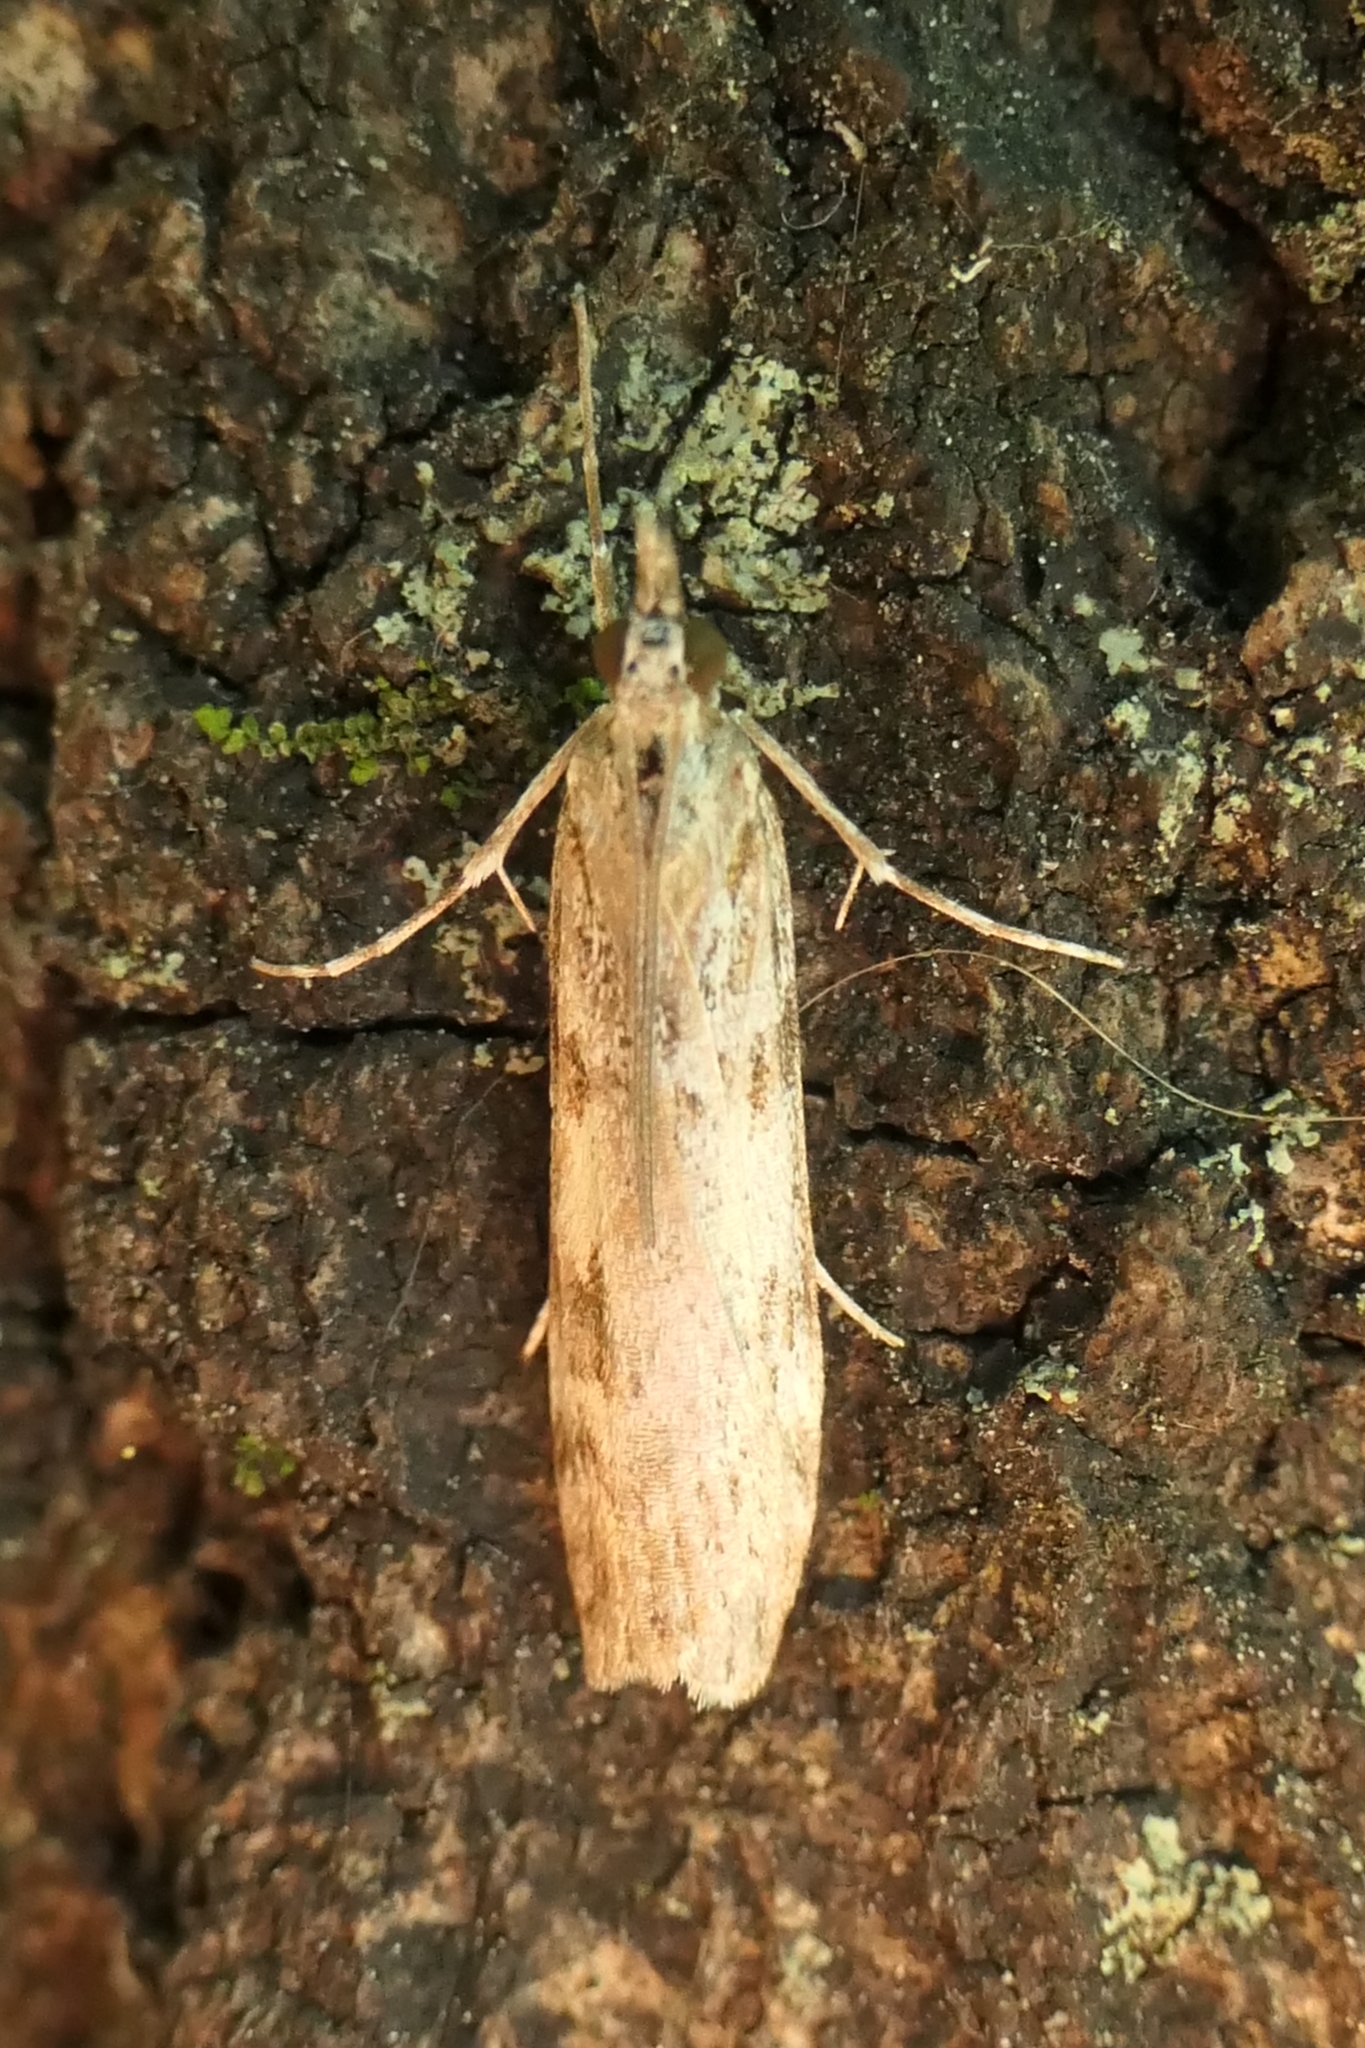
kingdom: Animalia
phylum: Arthropoda
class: Insecta
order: Lepidoptera
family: Crambidae
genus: Scoparia
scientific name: Scoparia halopis
